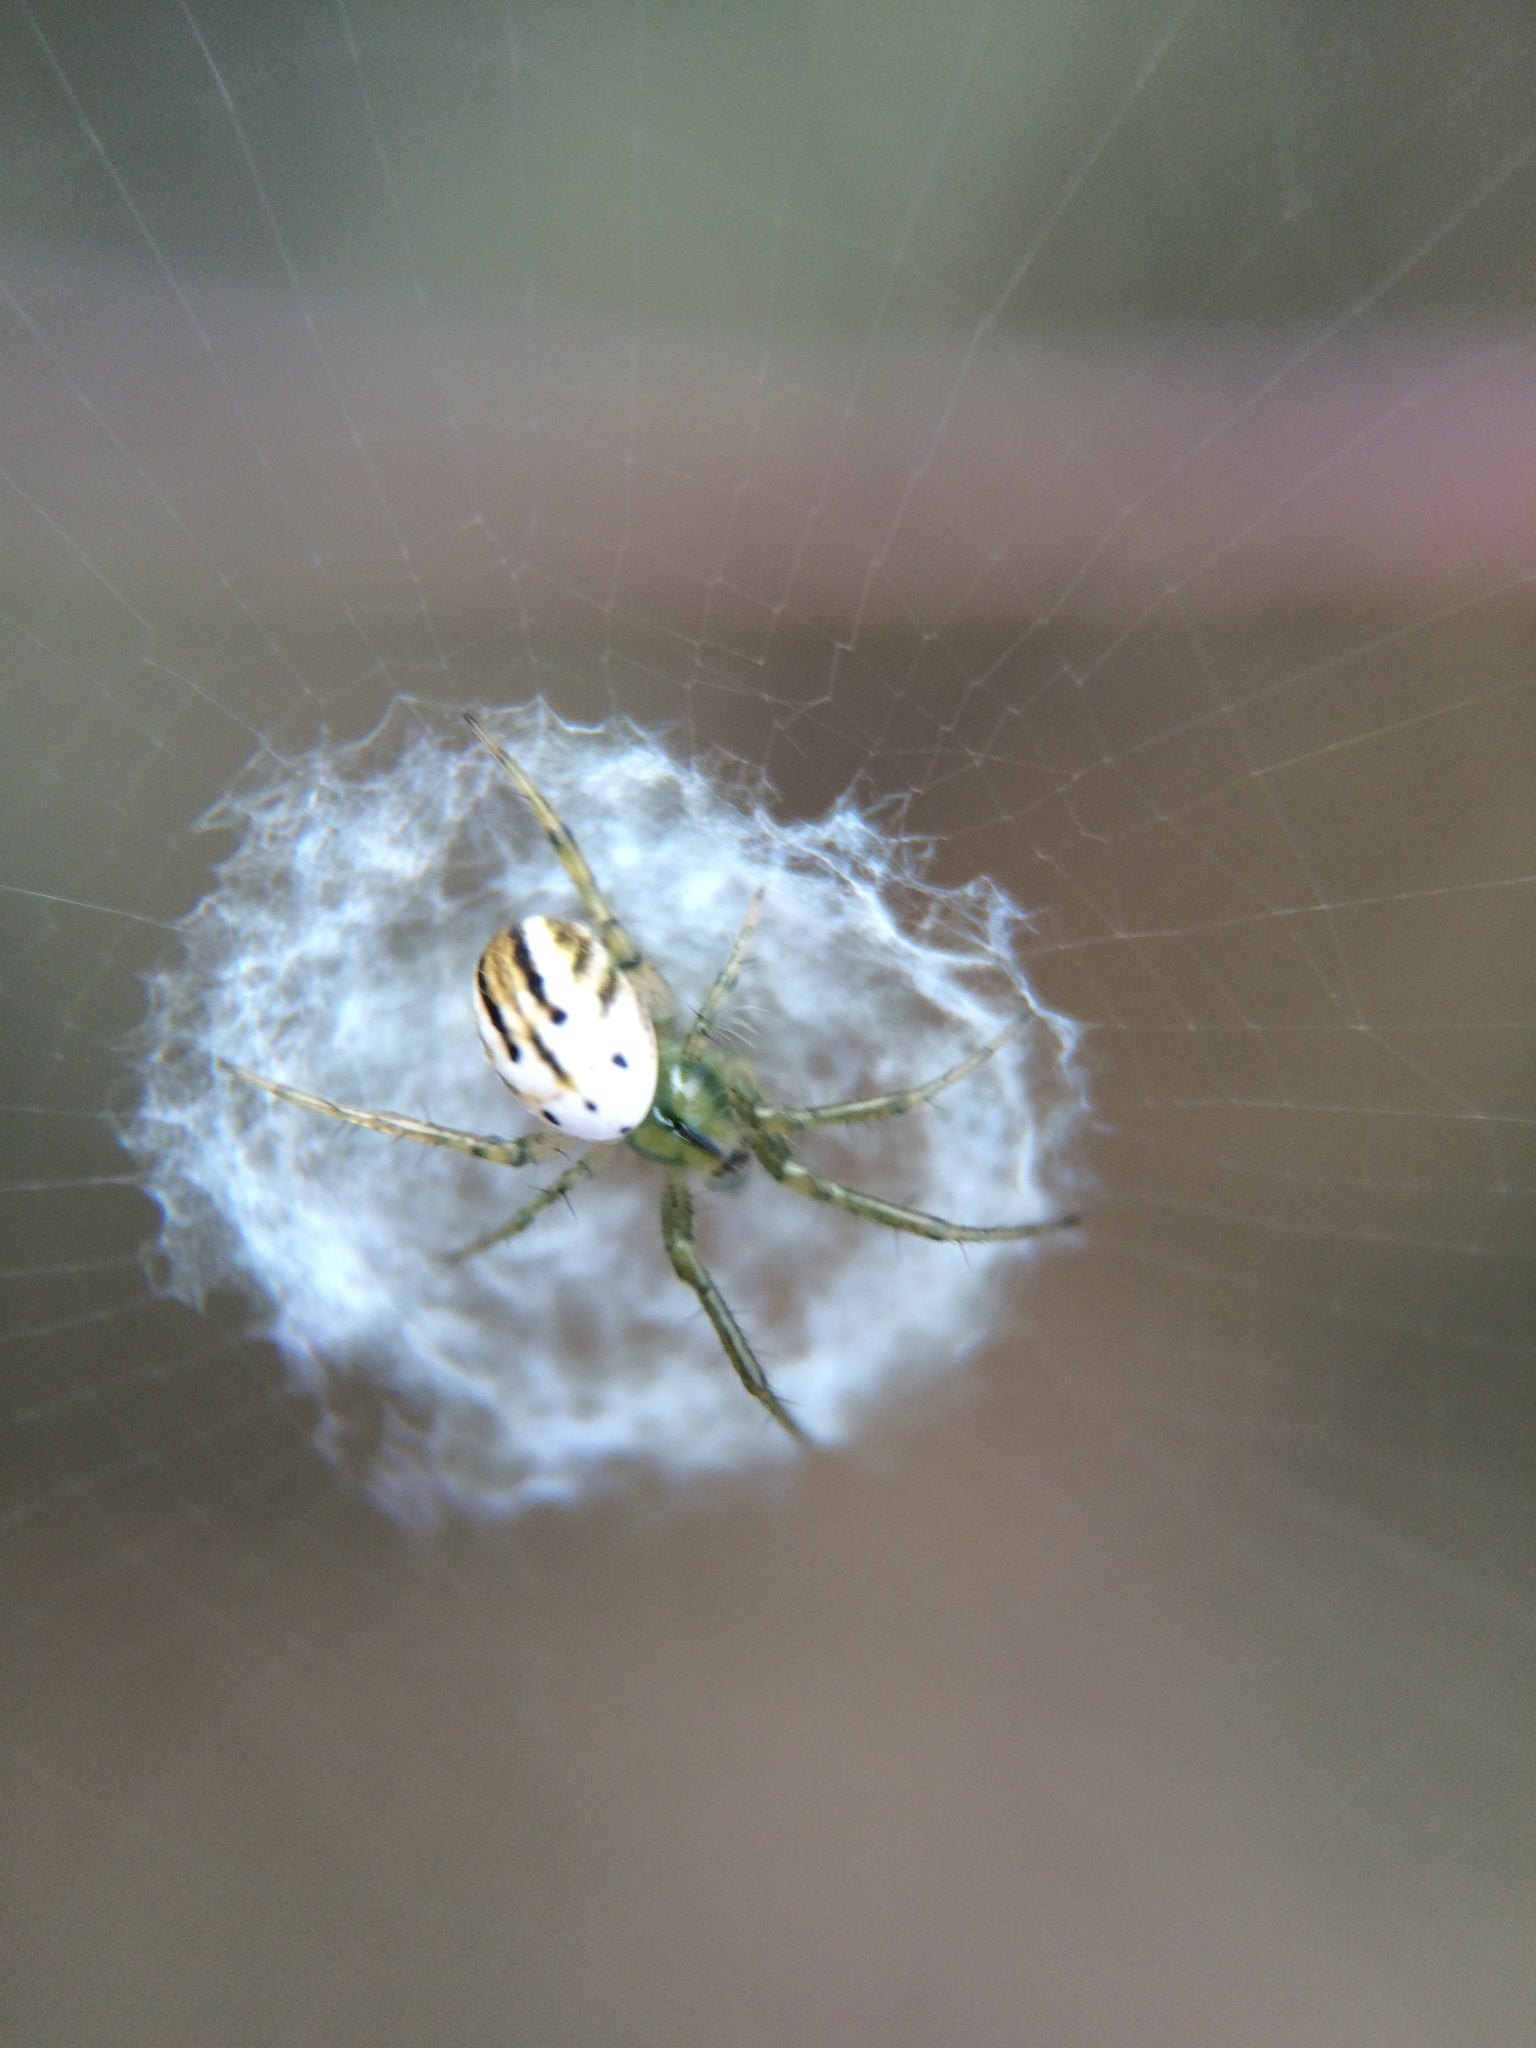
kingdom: Animalia
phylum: Arthropoda
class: Arachnida
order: Araneae
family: Araneidae
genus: Mangora
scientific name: Mangora gibberosa
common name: Lined orbweaver
